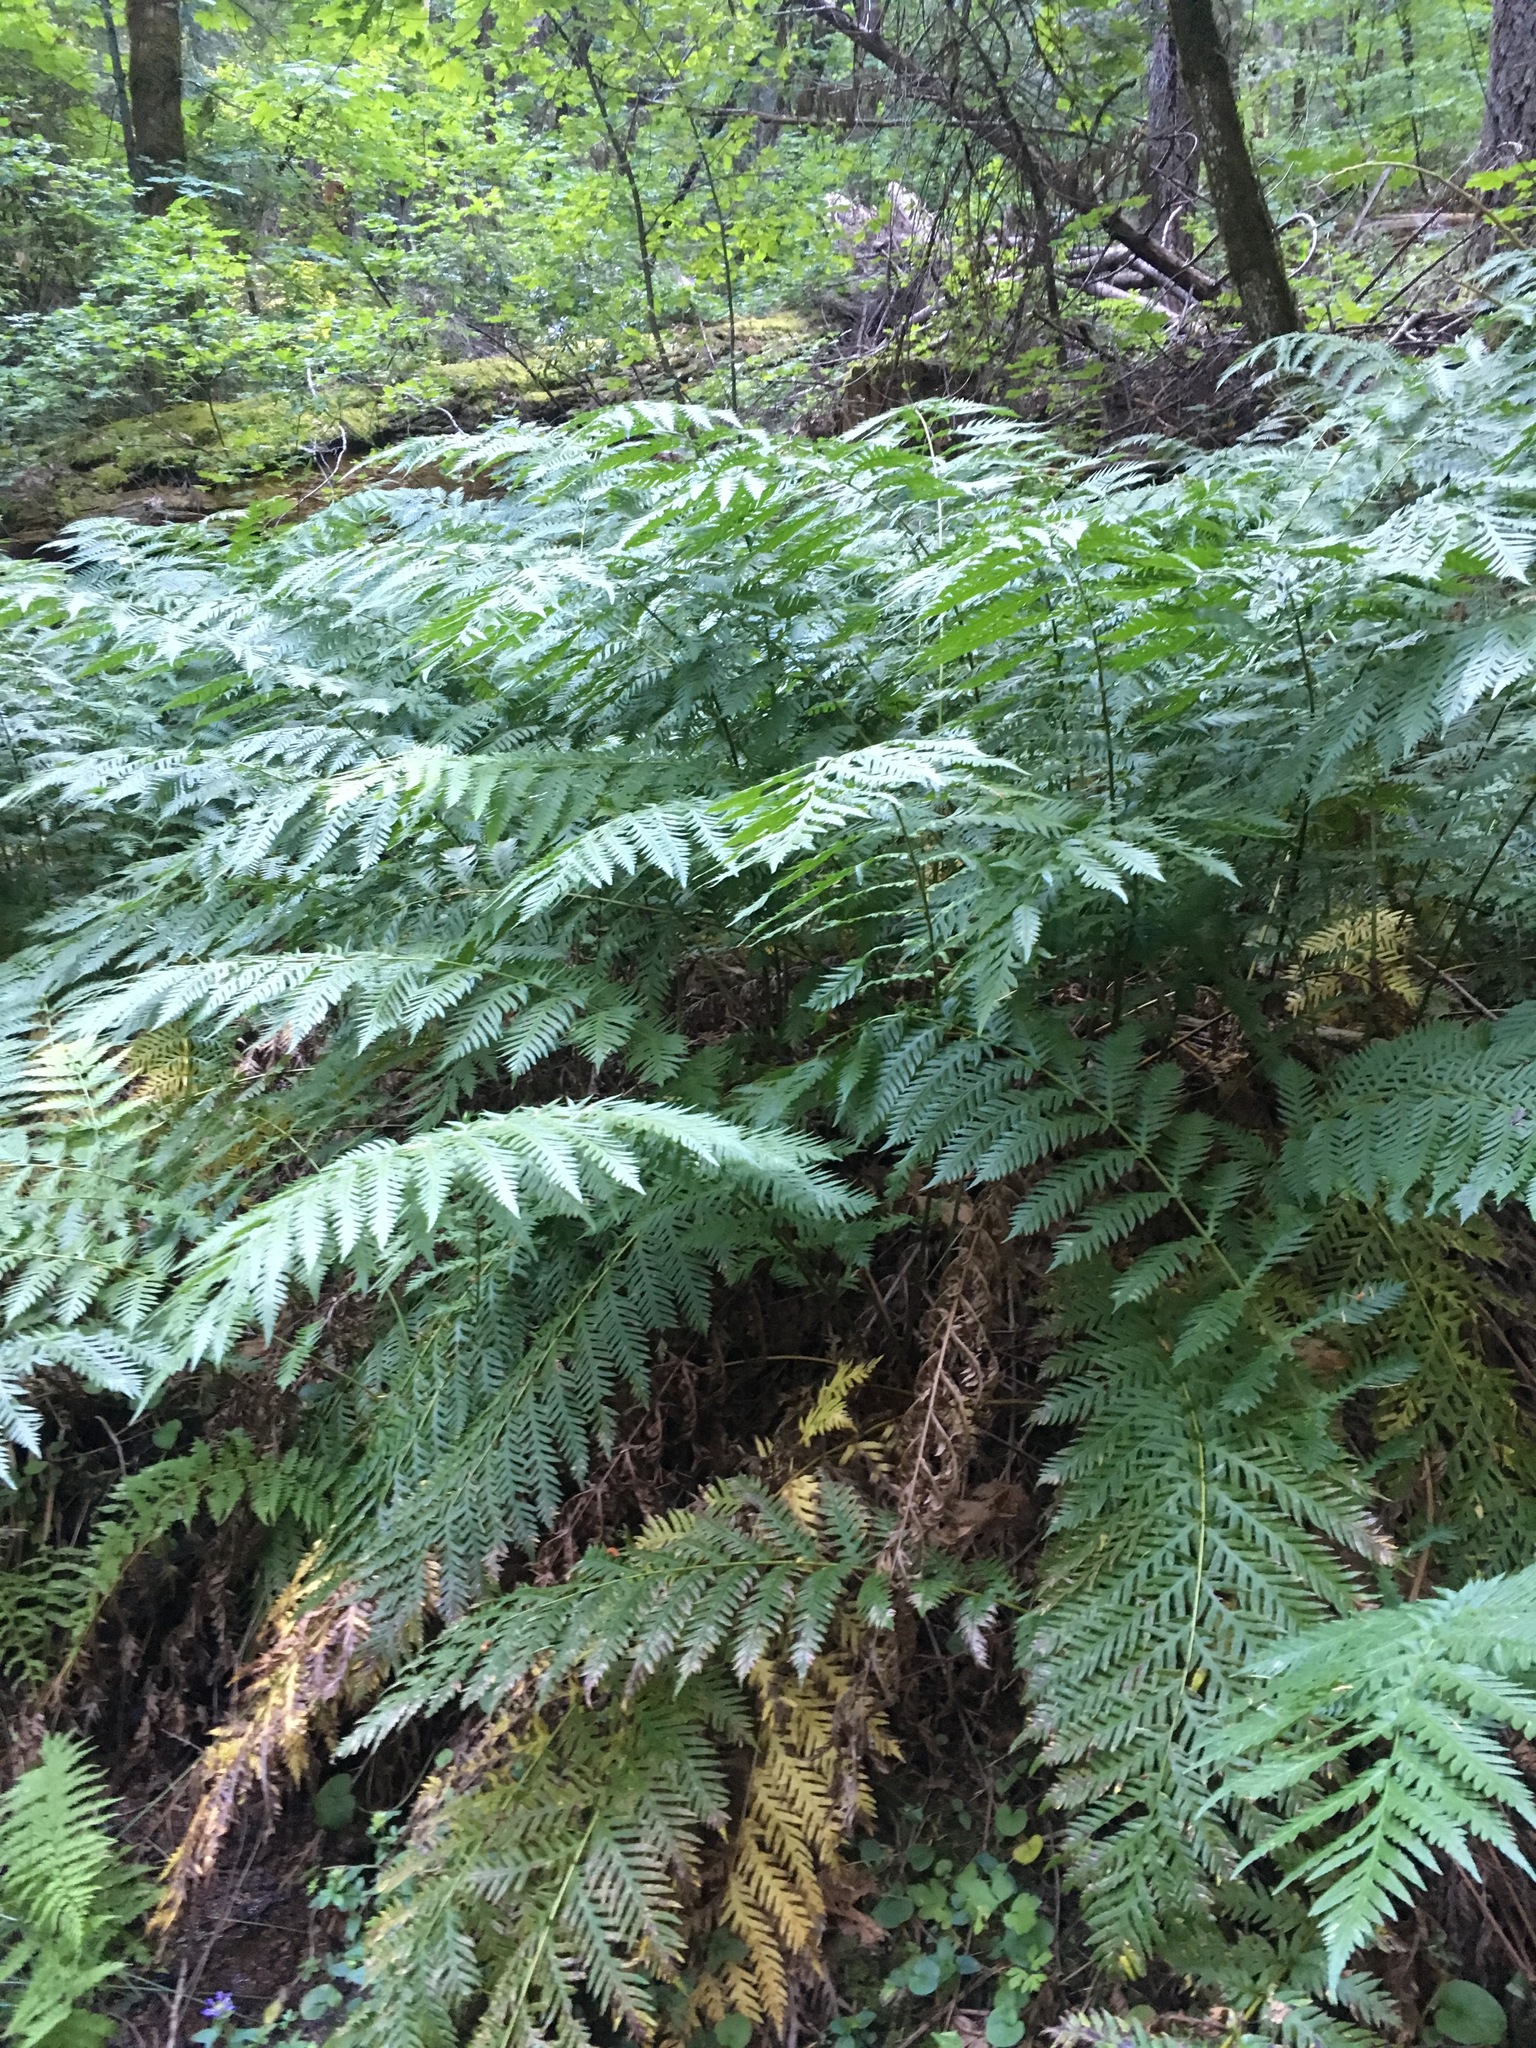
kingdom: Plantae
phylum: Tracheophyta
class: Polypodiopsida
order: Polypodiales
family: Blechnaceae
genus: Woodwardia
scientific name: Woodwardia fimbriata
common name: Giant chain fern
